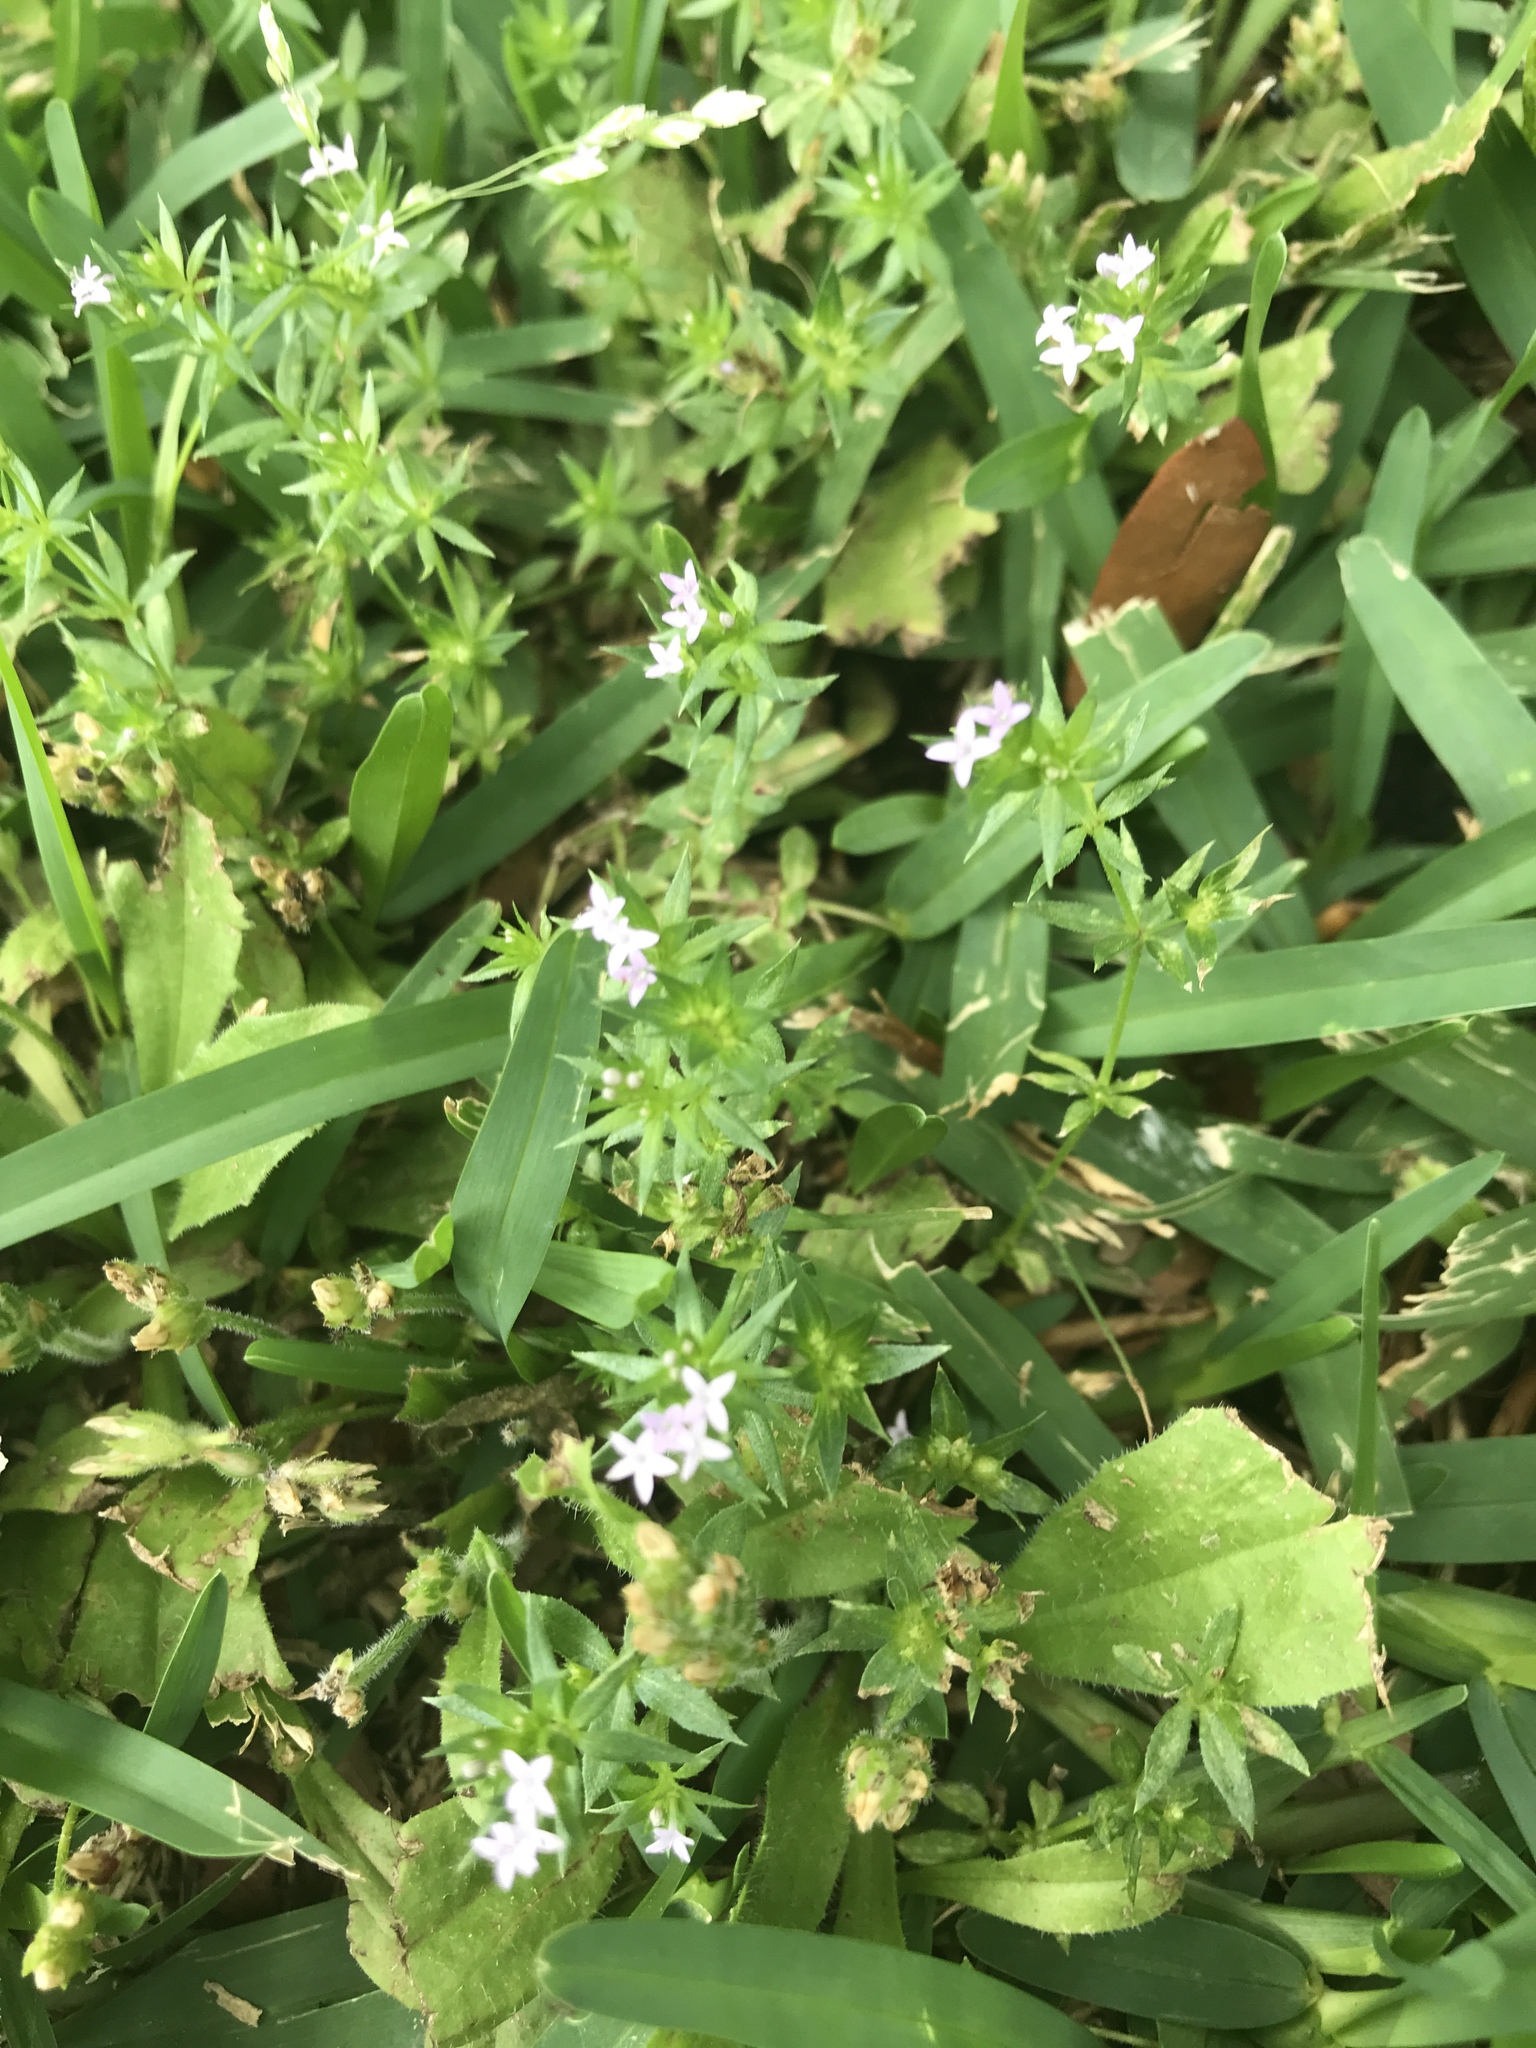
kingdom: Plantae
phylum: Tracheophyta
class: Magnoliopsida
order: Gentianales
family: Rubiaceae
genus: Sherardia
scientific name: Sherardia arvensis
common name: Field madder
